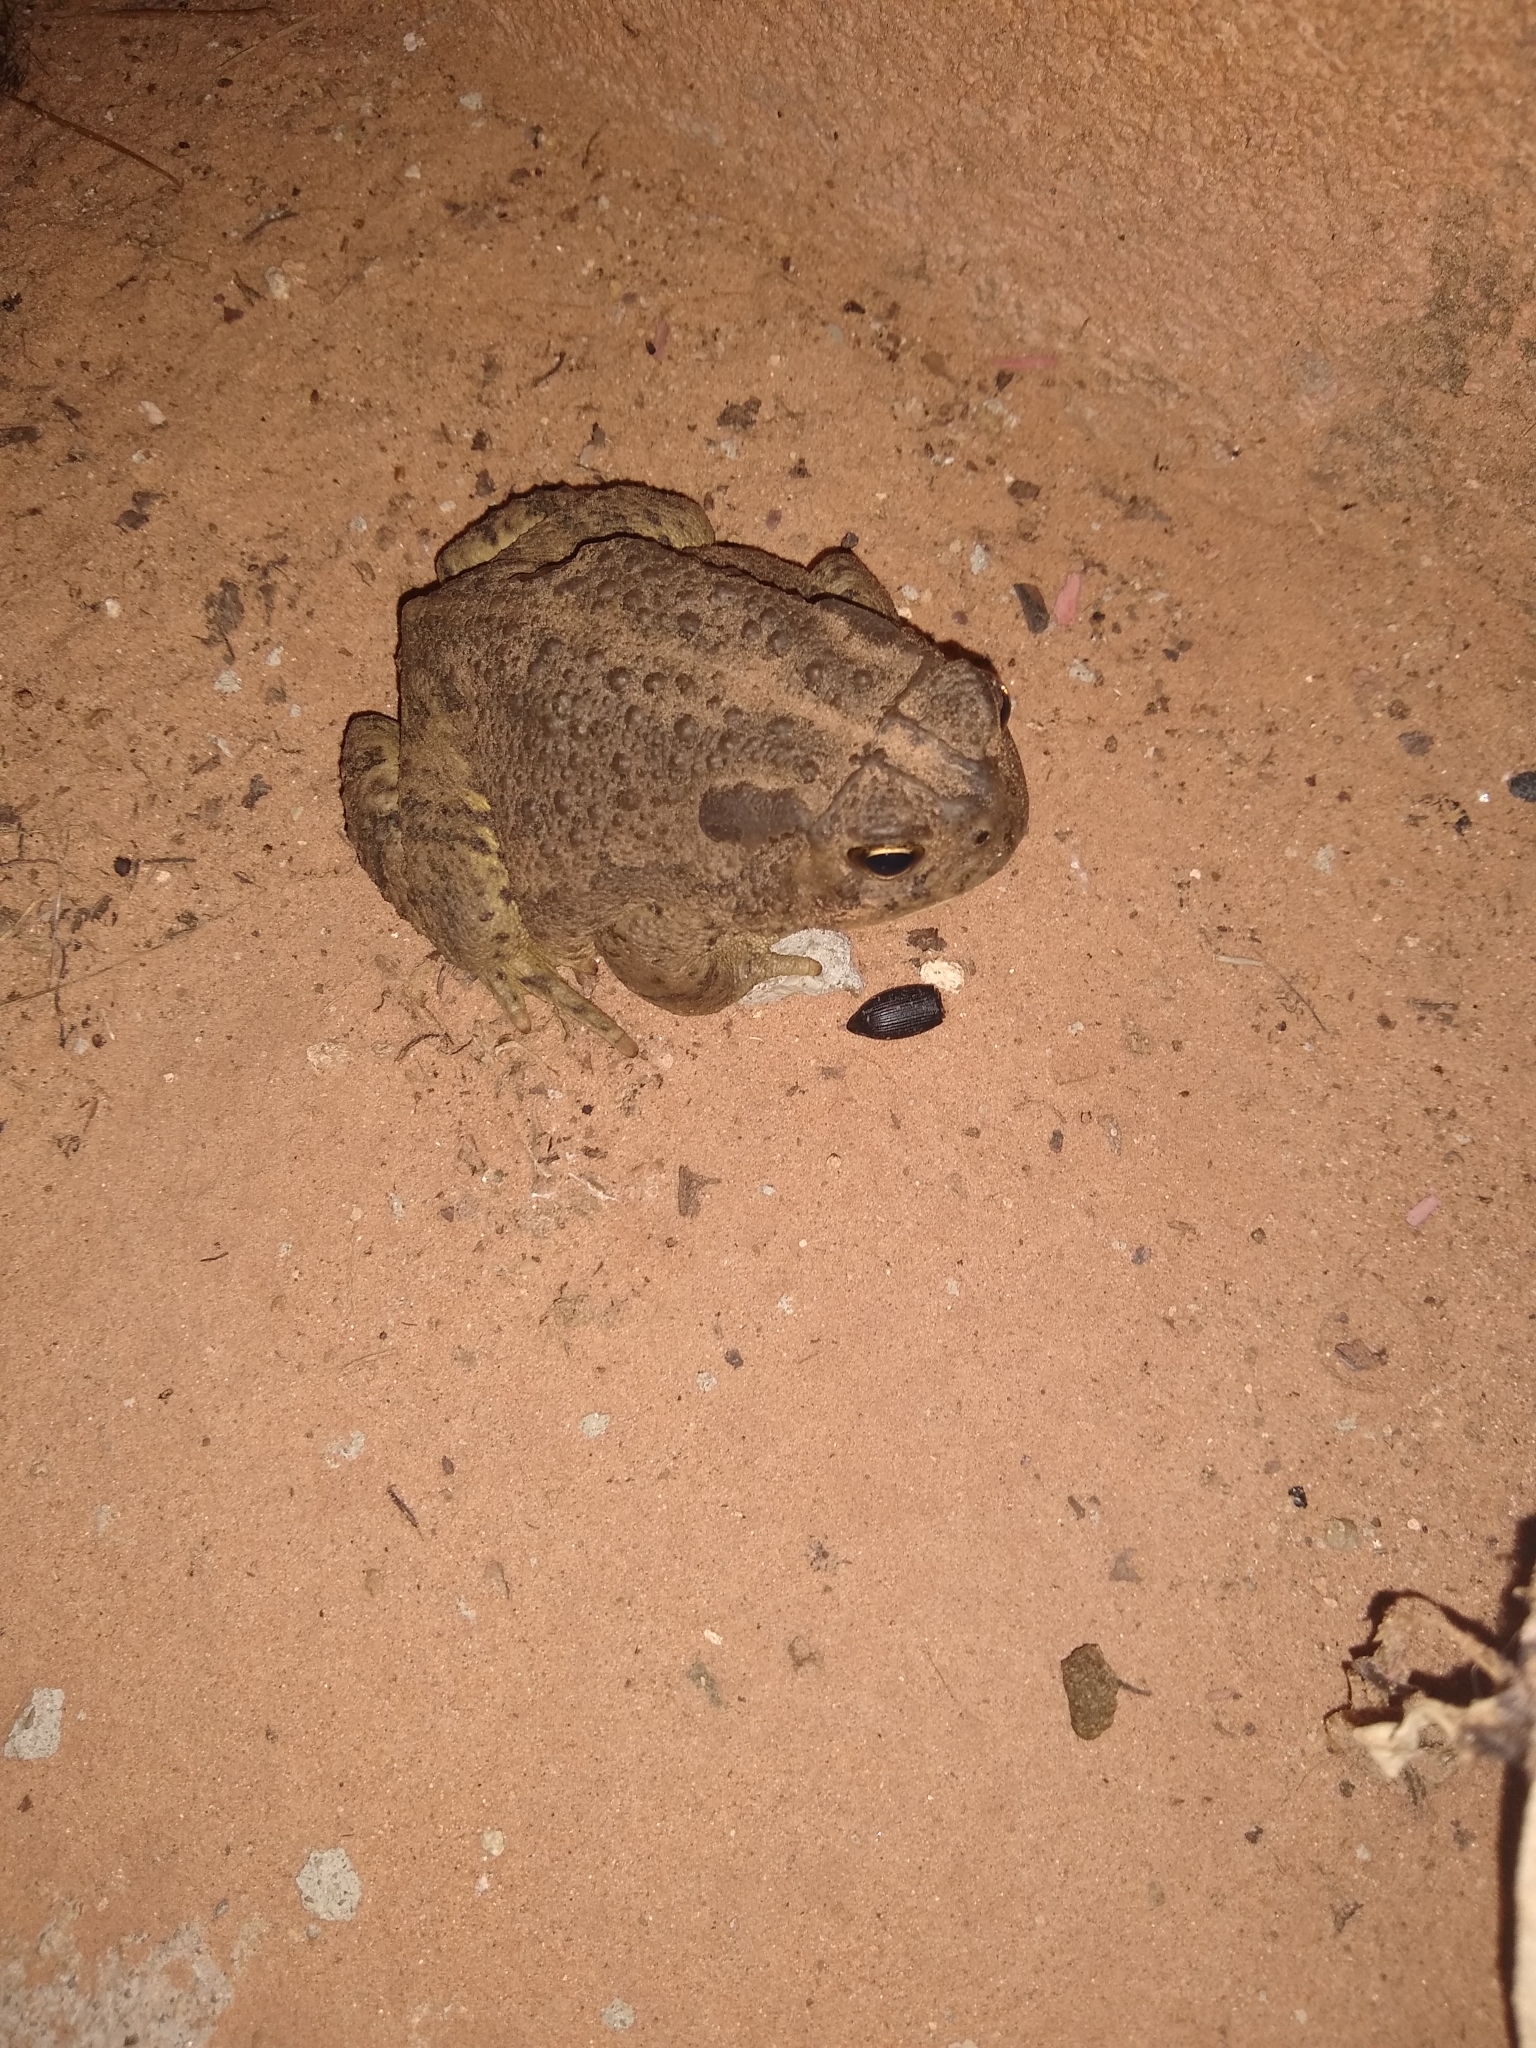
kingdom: Animalia
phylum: Chordata
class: Amphibia
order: Anura
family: Bufonidae
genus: Anaxyrus
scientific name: Anaxyrus woodhousii
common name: Woodhouse's toad
